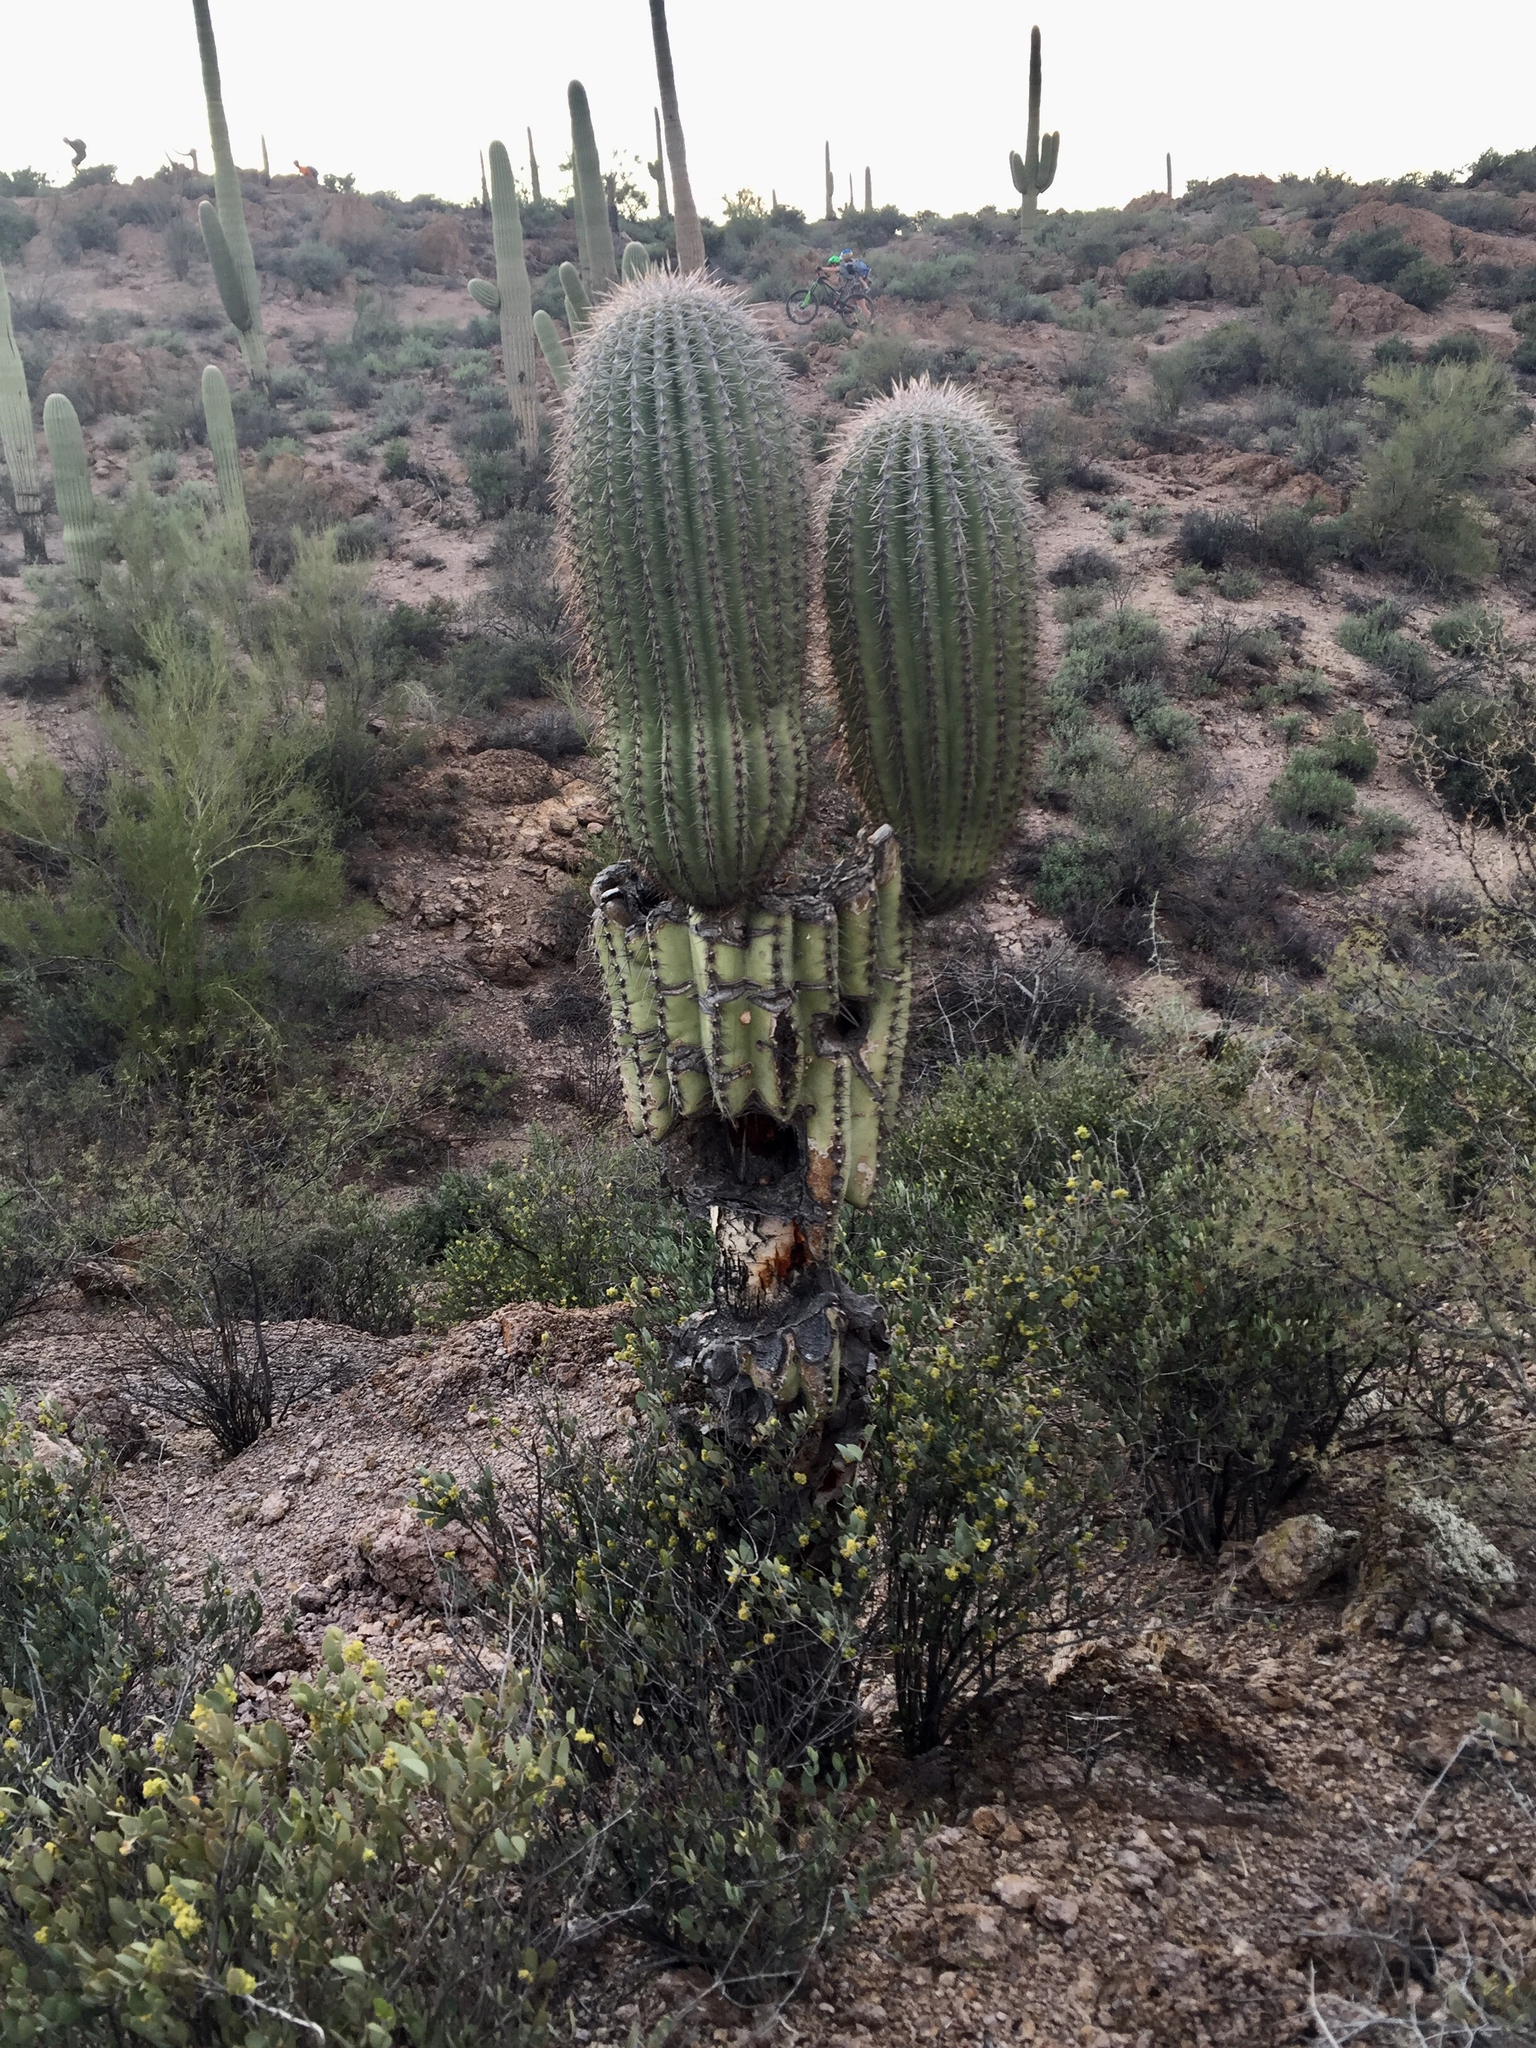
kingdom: Plantae
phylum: Tracheophyta
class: Magnoliopsida
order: Caryophyllales
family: Cactaceae
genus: Carnegiea
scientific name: Carnegiea gigantea
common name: Saguaro
